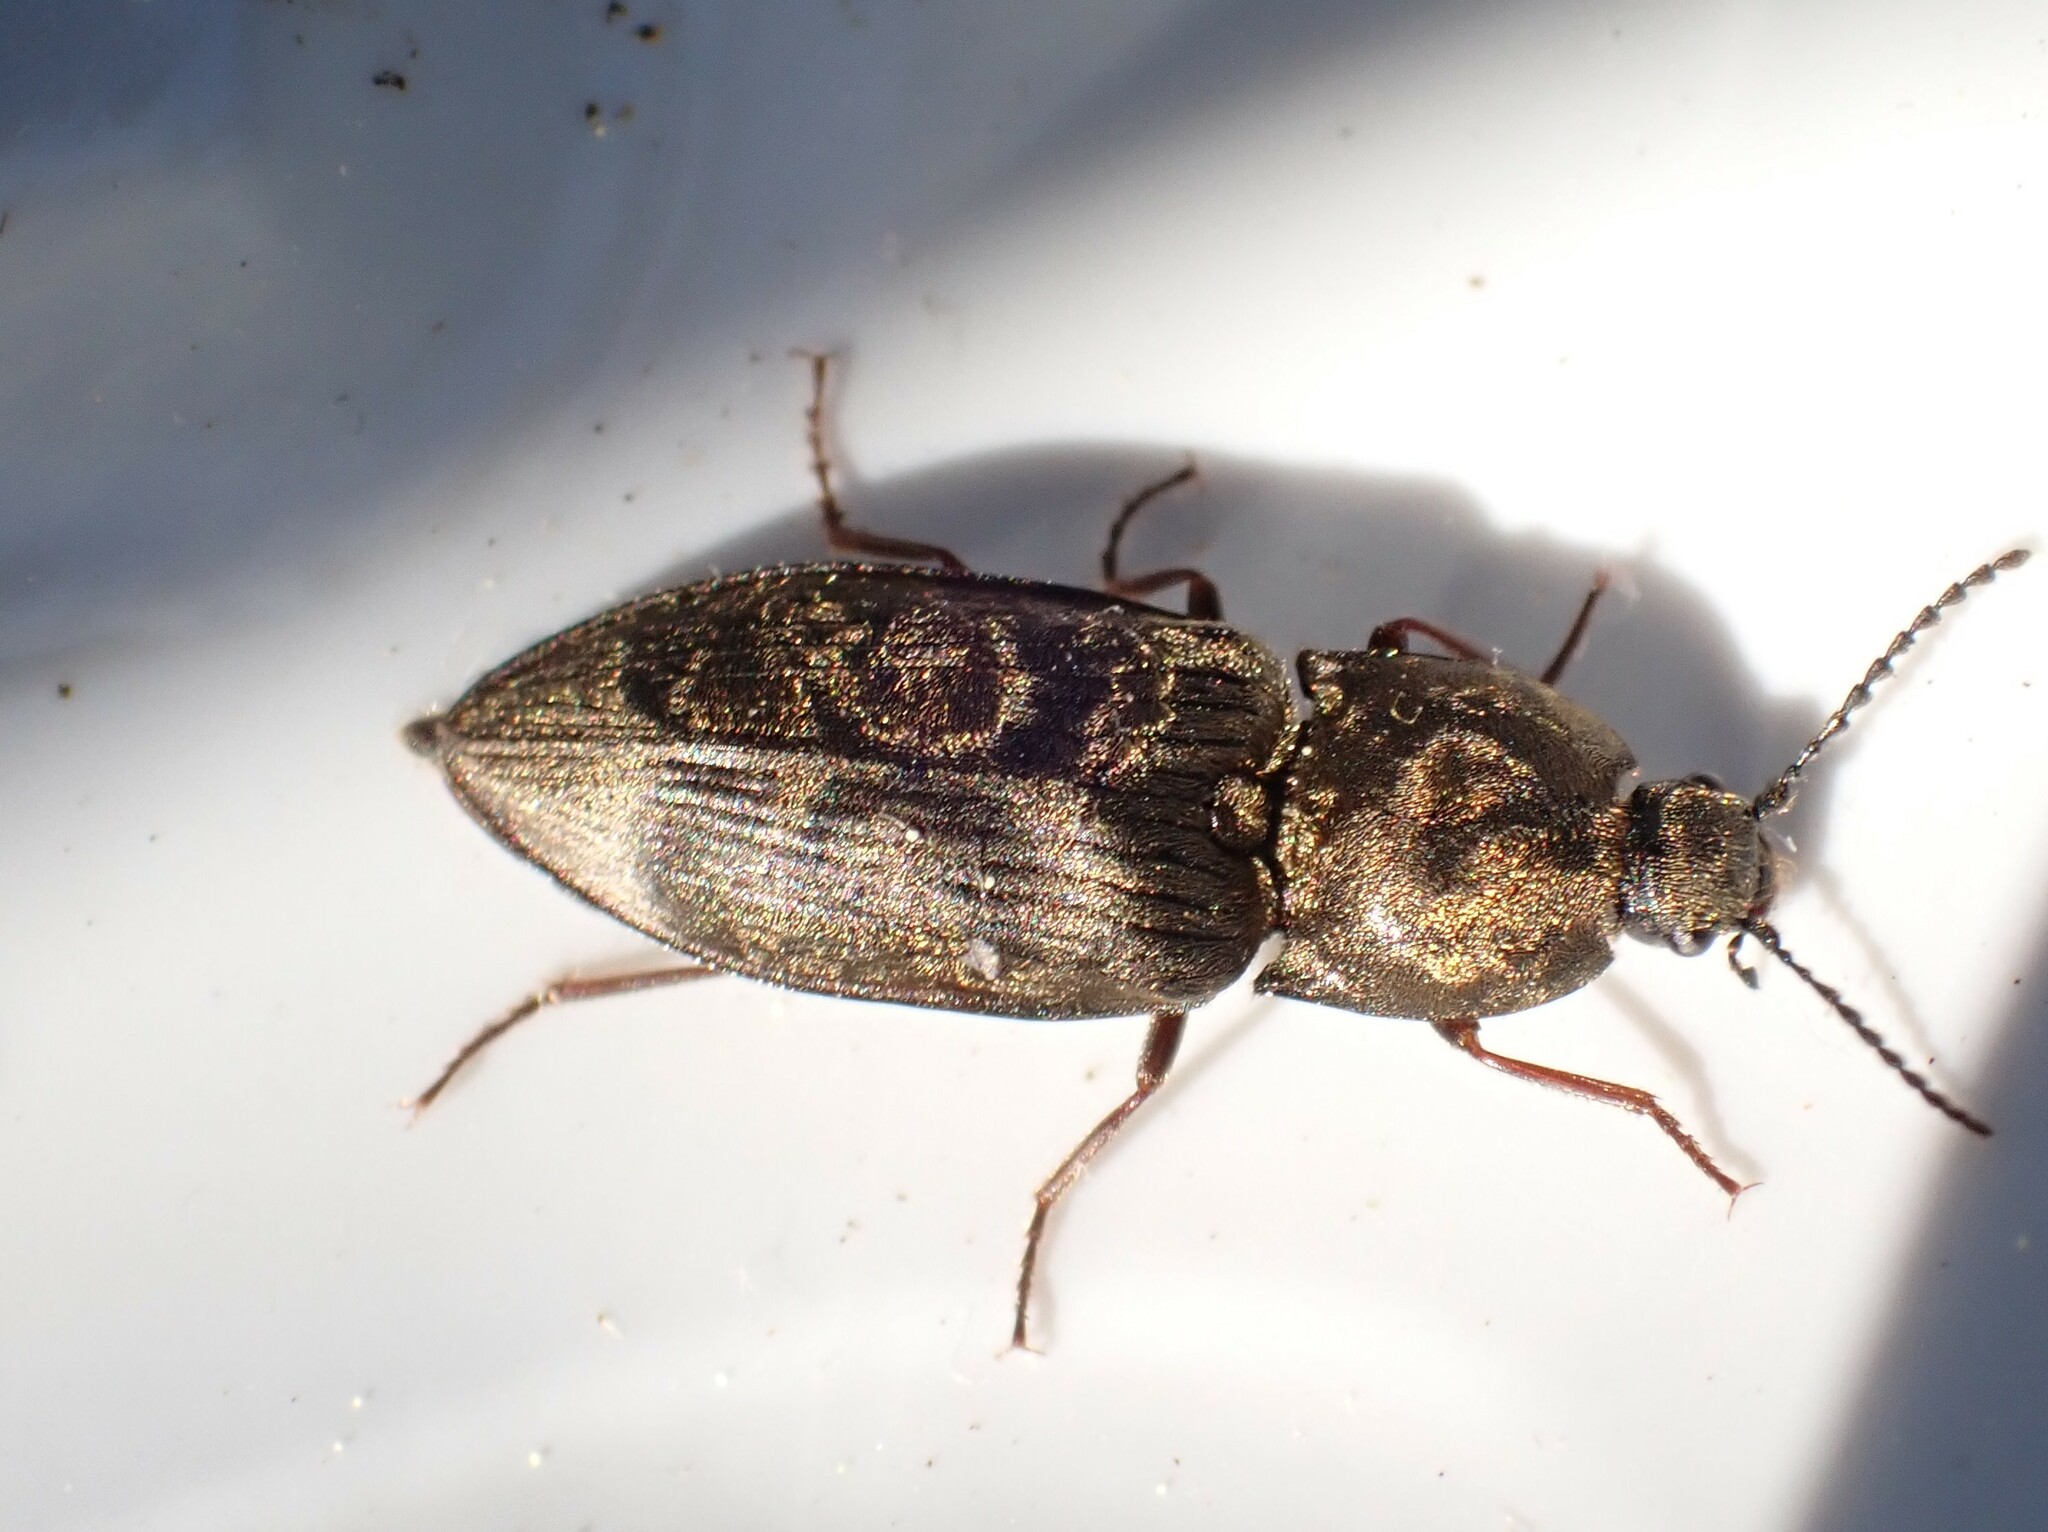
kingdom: Animalia
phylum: Arthropoda
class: Insecta
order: Coleoptera
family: Elateridae
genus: Prosternon
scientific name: Prosternon tessellatum
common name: Chequered click beetle
